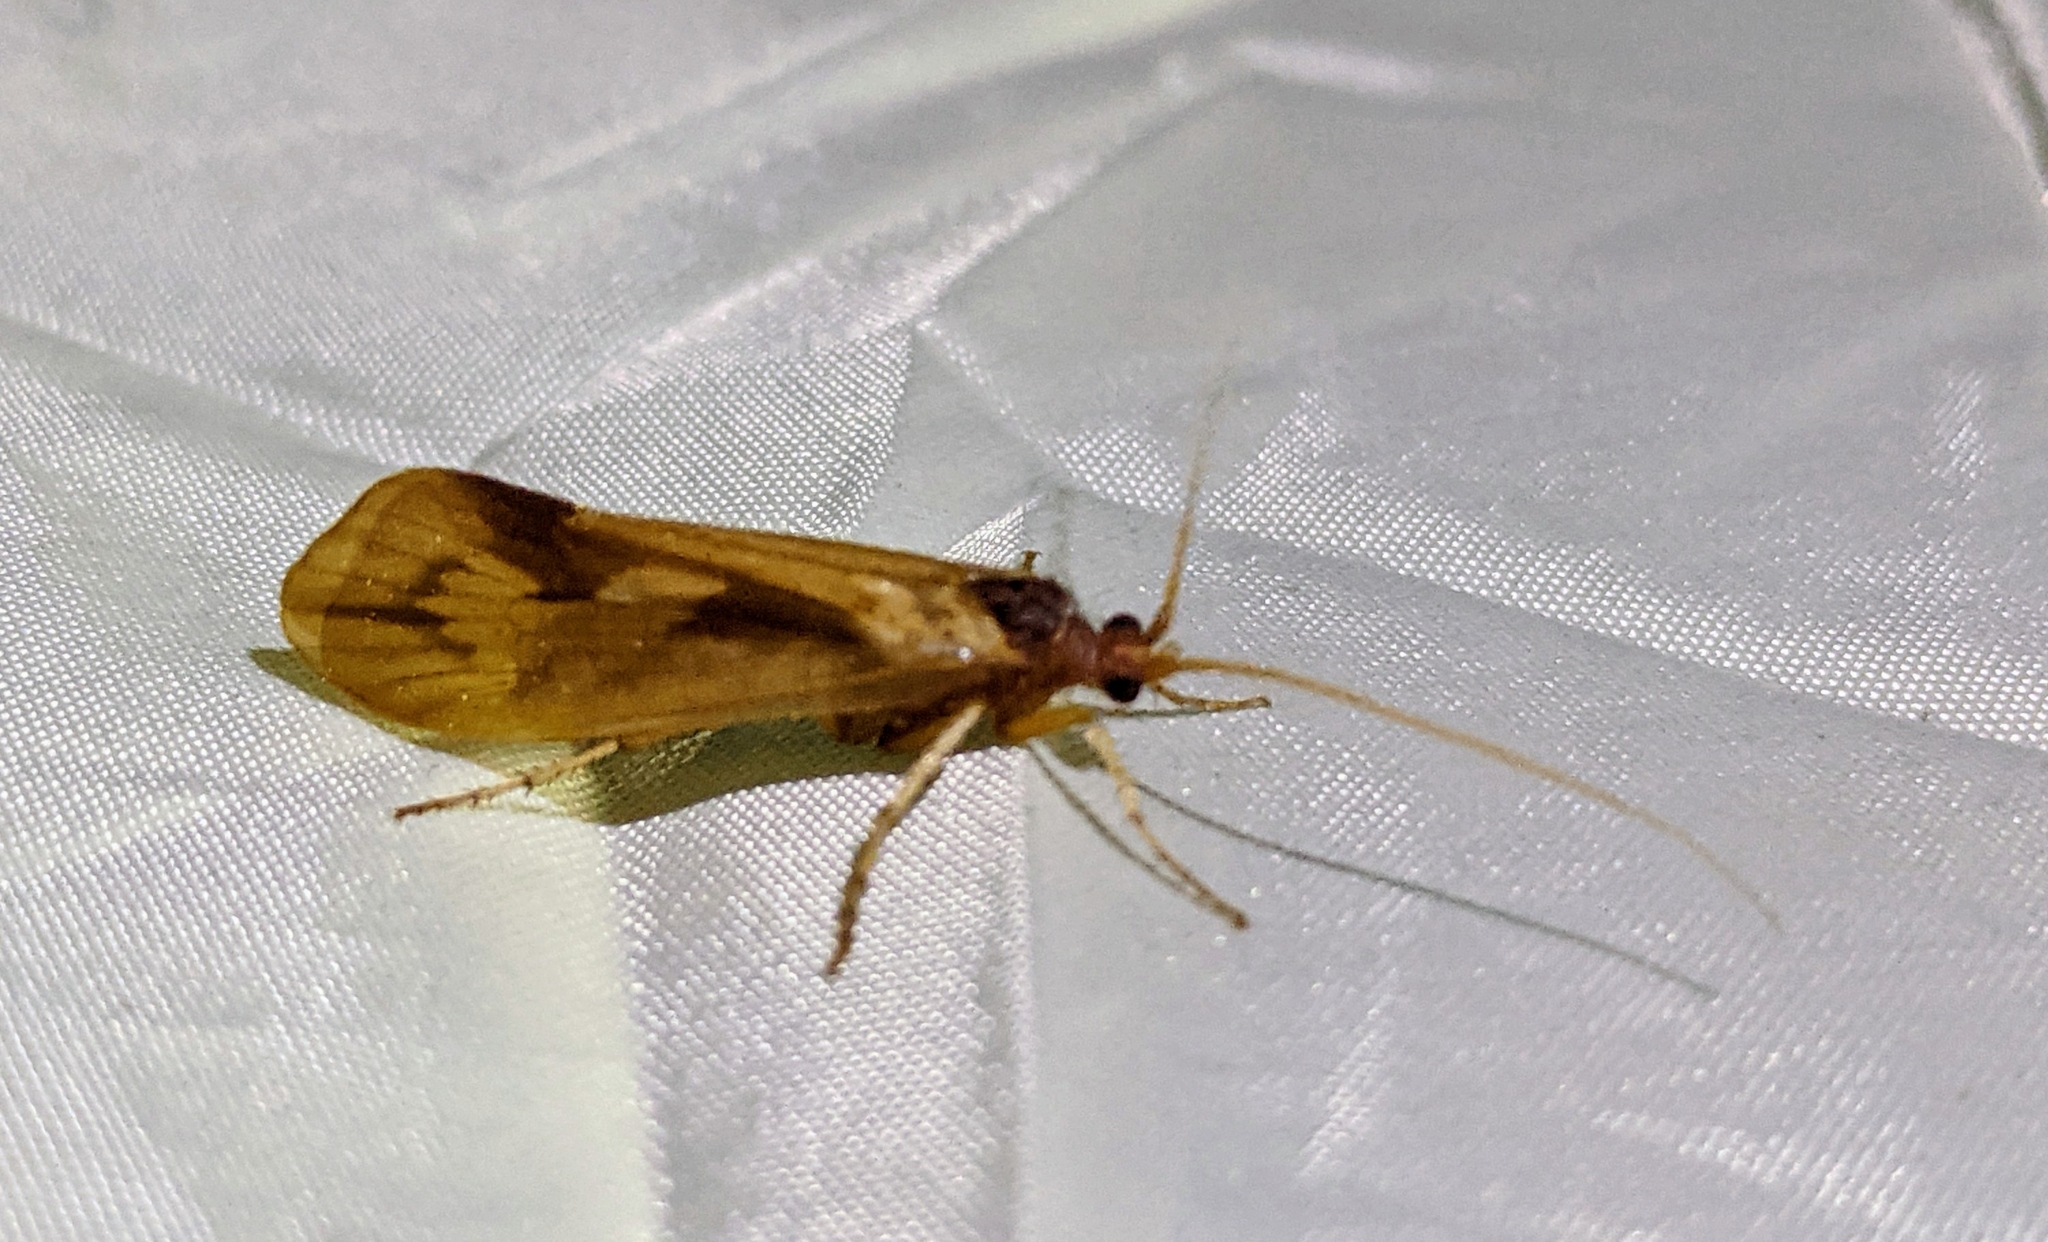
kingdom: Animalia
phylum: Arthropoda
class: Insecta
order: Trichoptera
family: Limnephilidae
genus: Platycentropus
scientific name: Platycentropus radiatus
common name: Chocolate-and-cream sedge
